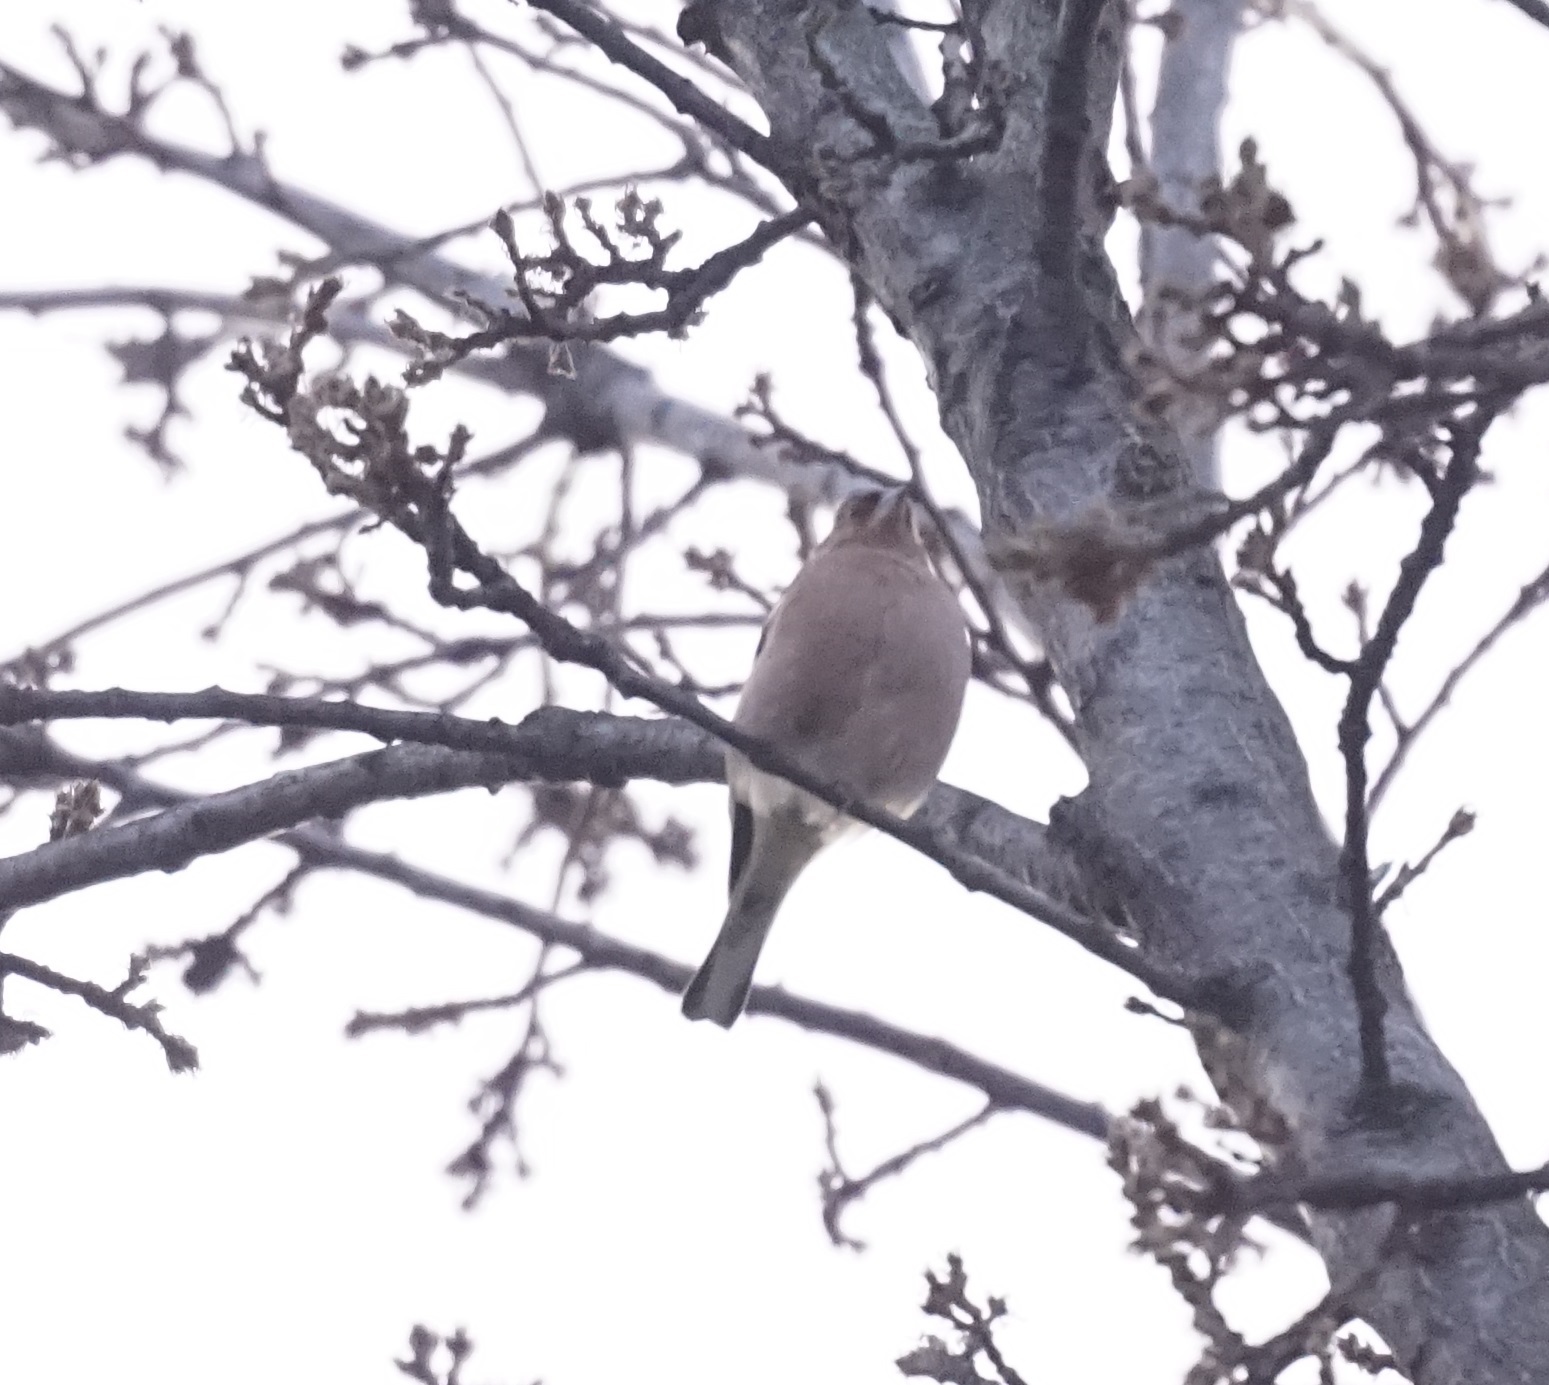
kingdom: Animalia
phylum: Chordata
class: Aves
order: Passeriformes
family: Fringillidae
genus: Fringilla
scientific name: Fringilla coelebs
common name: Common chaffinch
